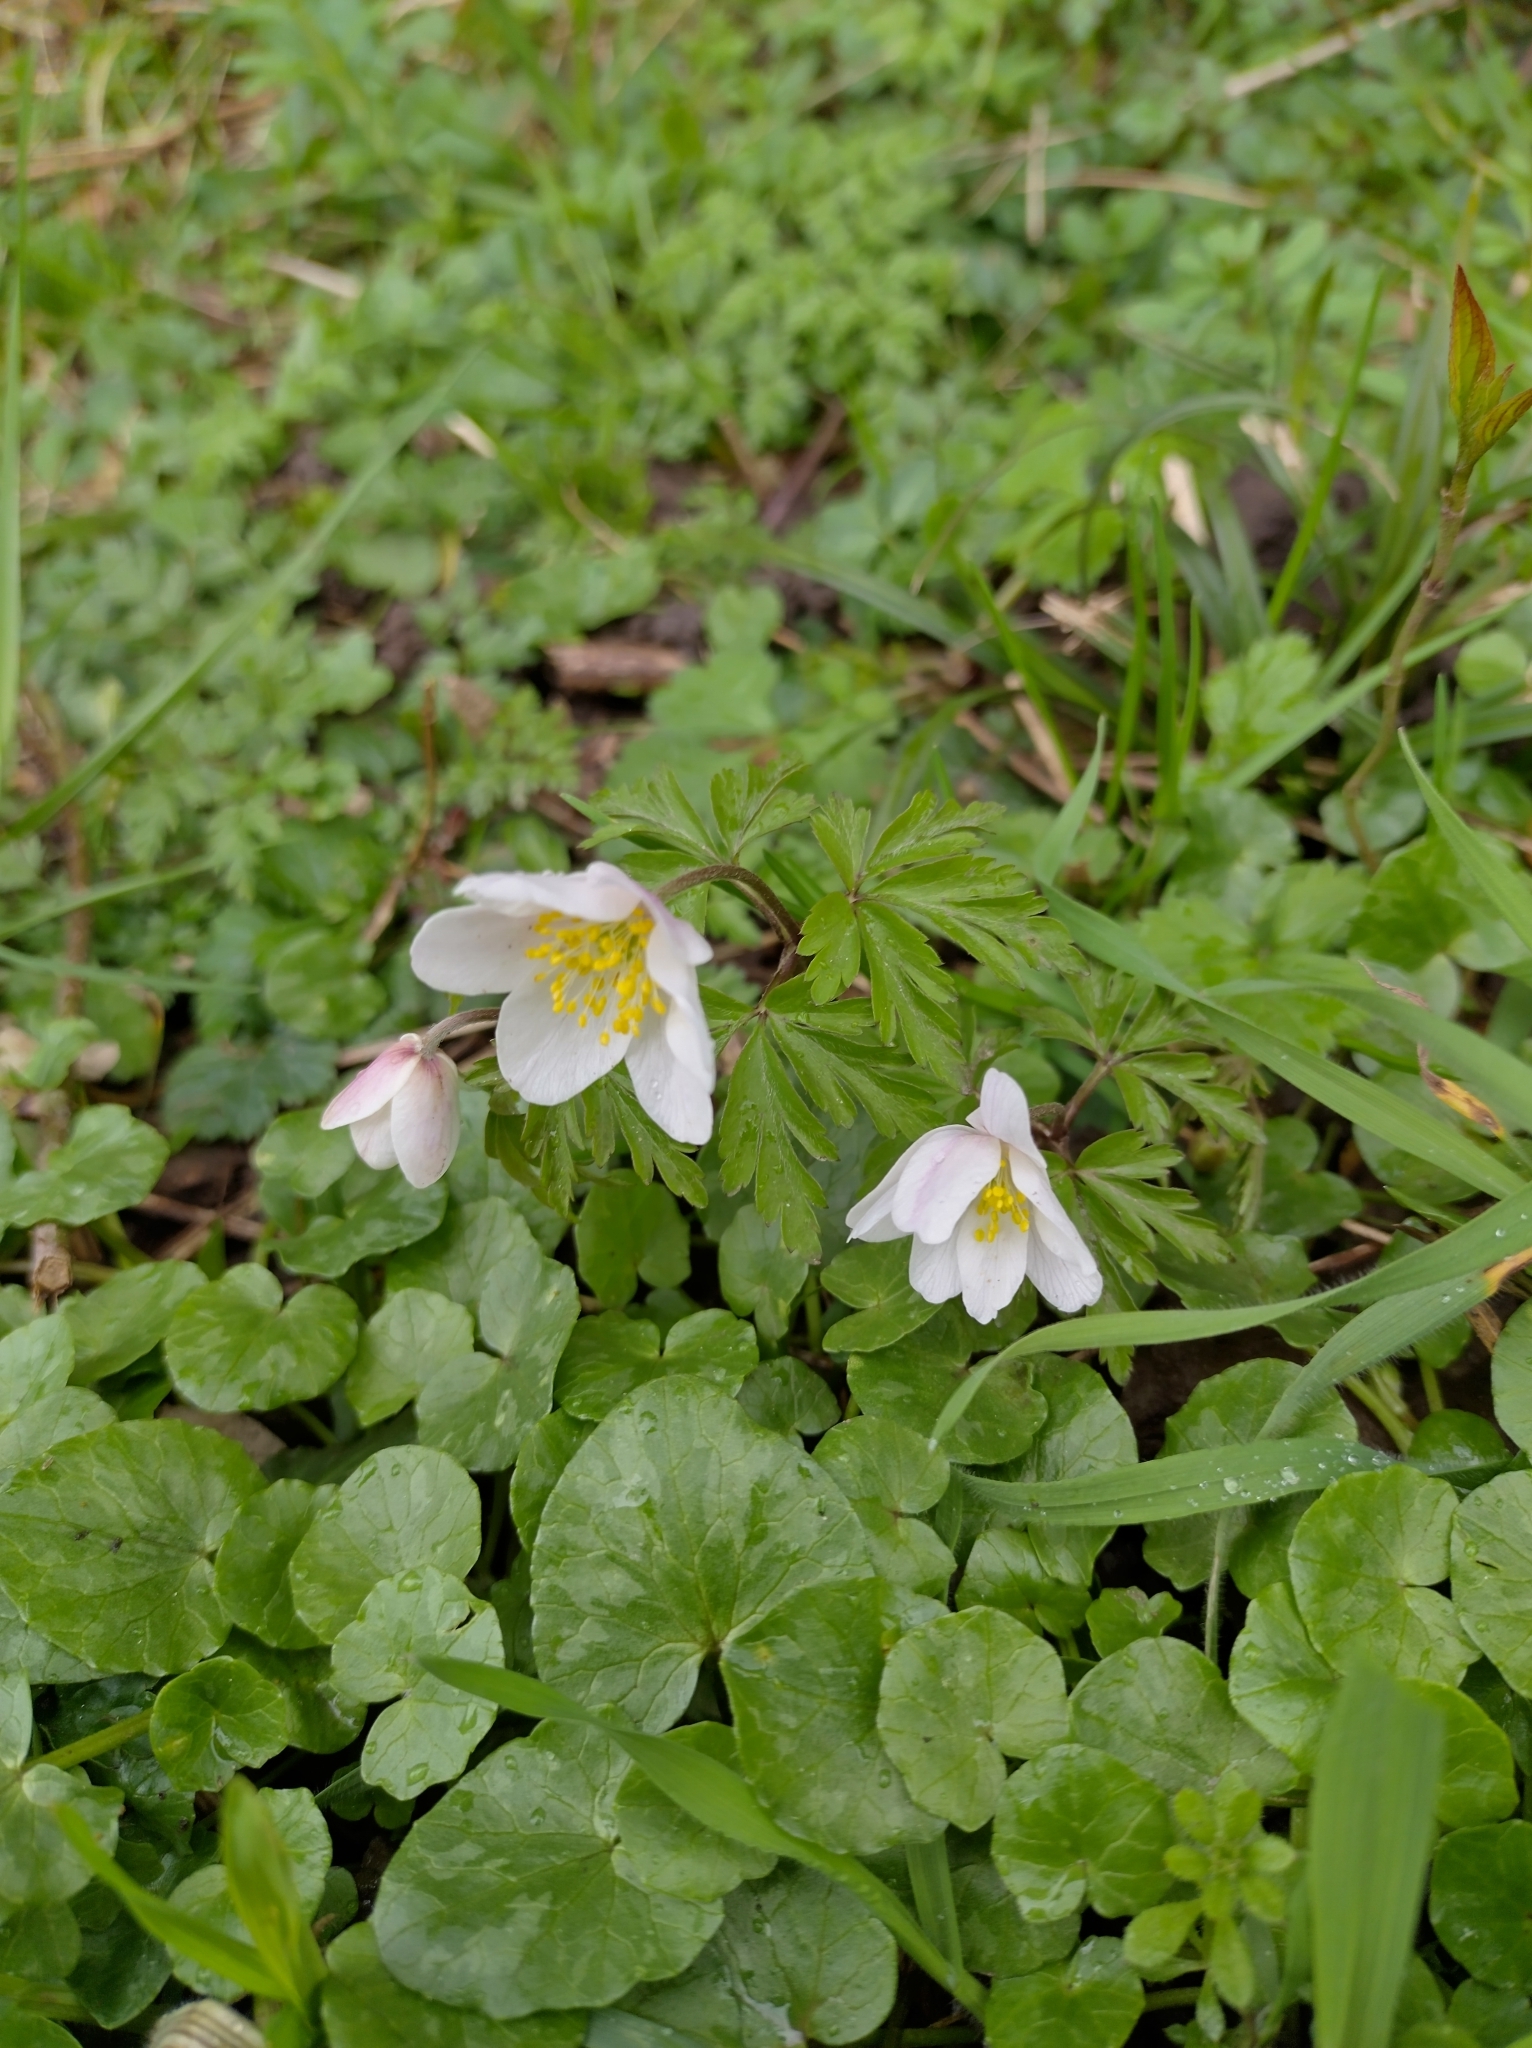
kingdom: Plantae
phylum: Tracheophyta
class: Magnoliopsida
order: Ranunculales
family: Ranunculaceae
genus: Anemone
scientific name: Anemone nemorosa
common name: Wood anemone
